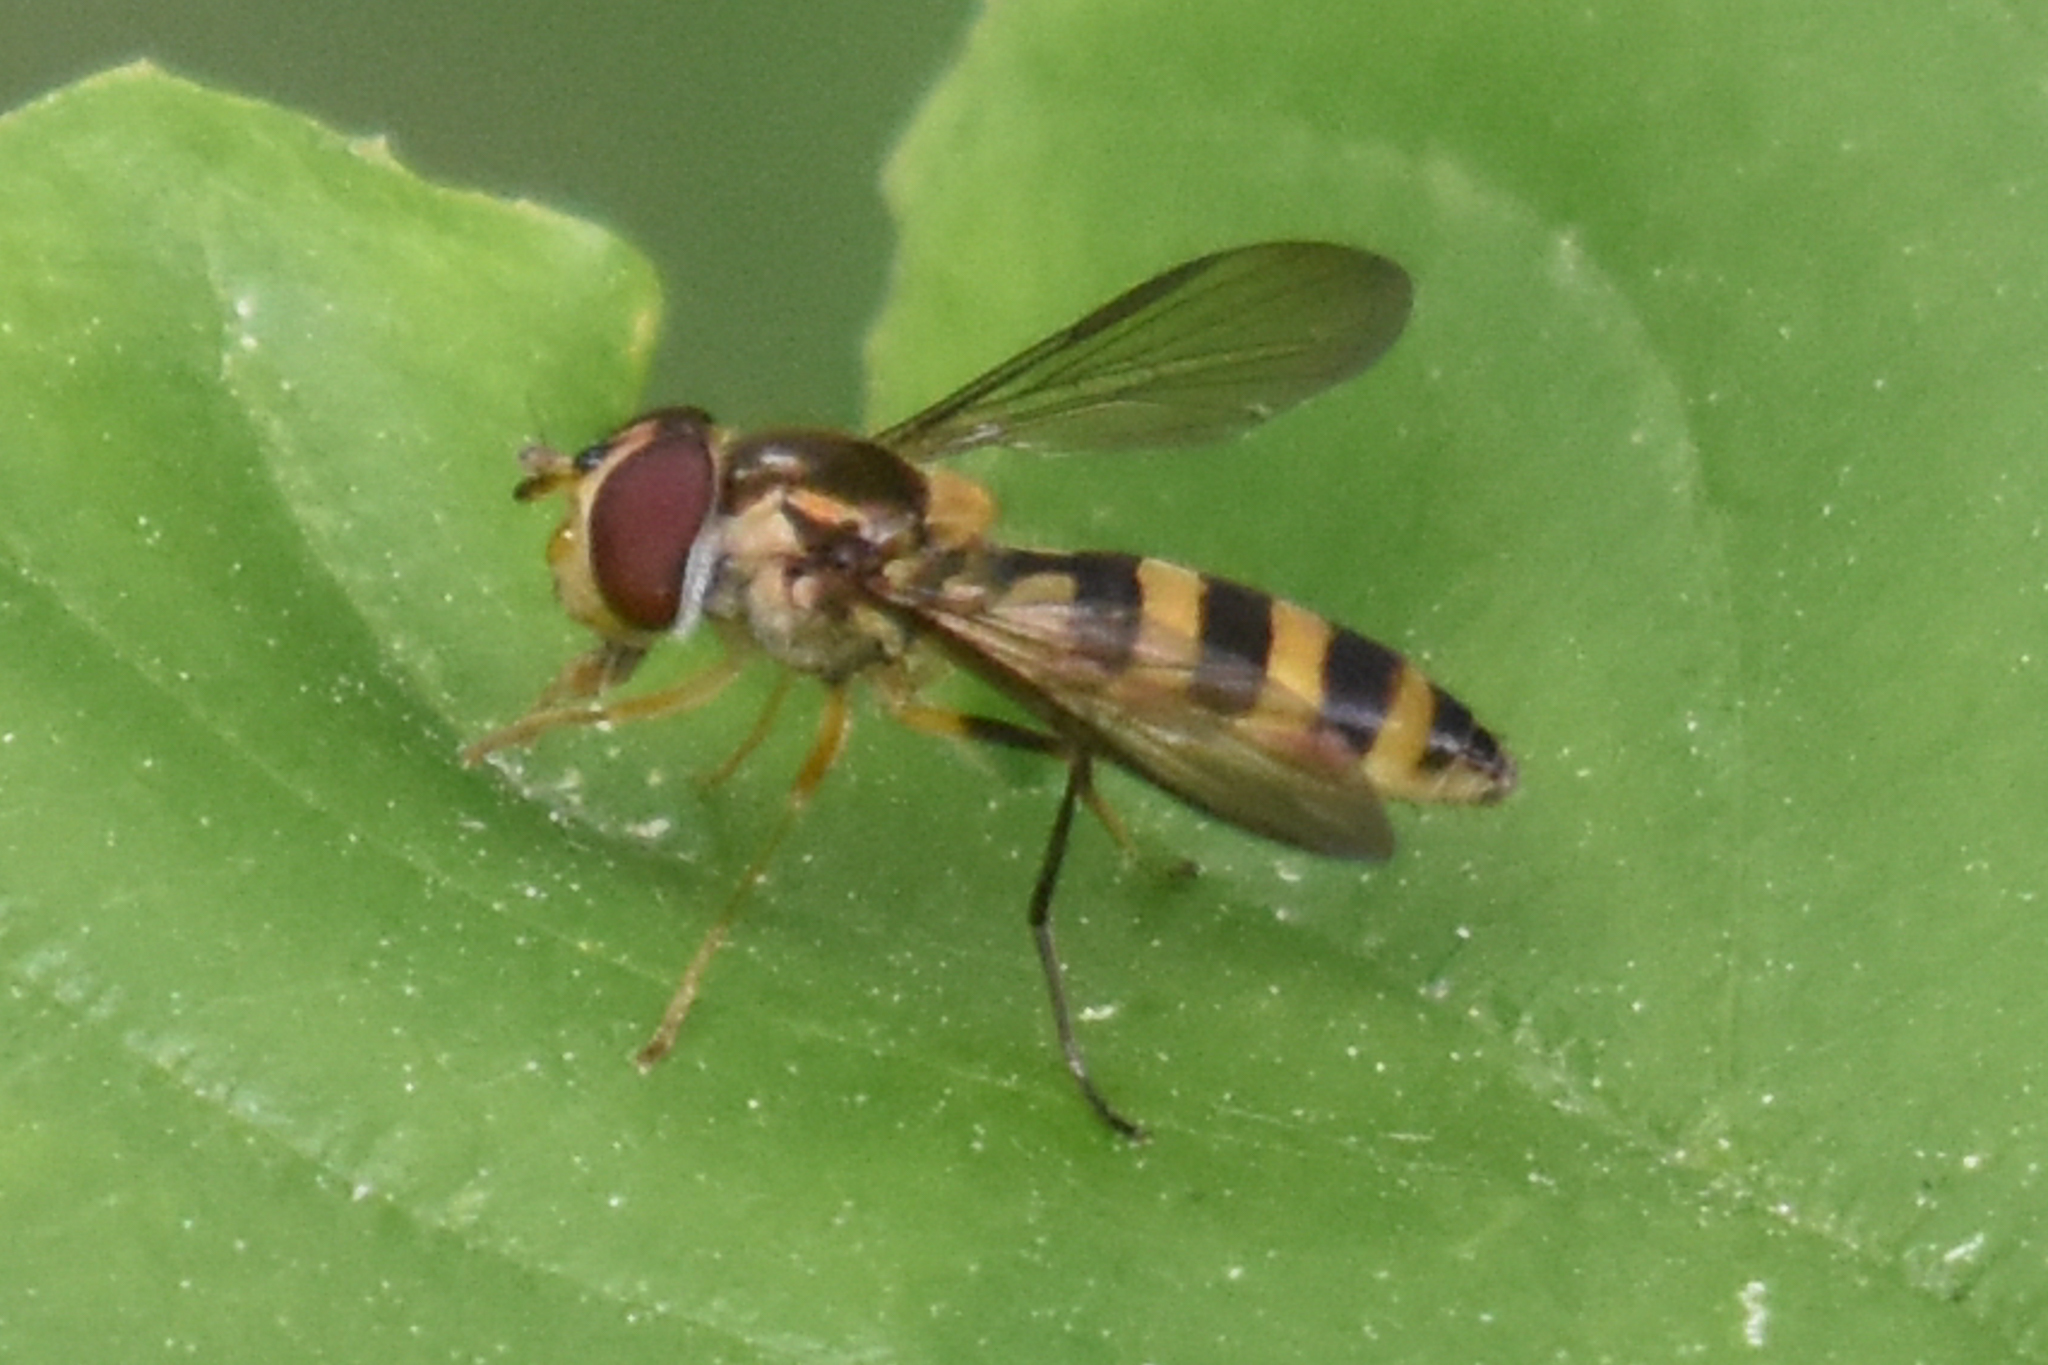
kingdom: Animalia
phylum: Arthropoda
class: Insecta
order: Diptera
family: Syrphidae
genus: Meliscaeva
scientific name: Meliscaeva cinctella
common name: American thintail fly
